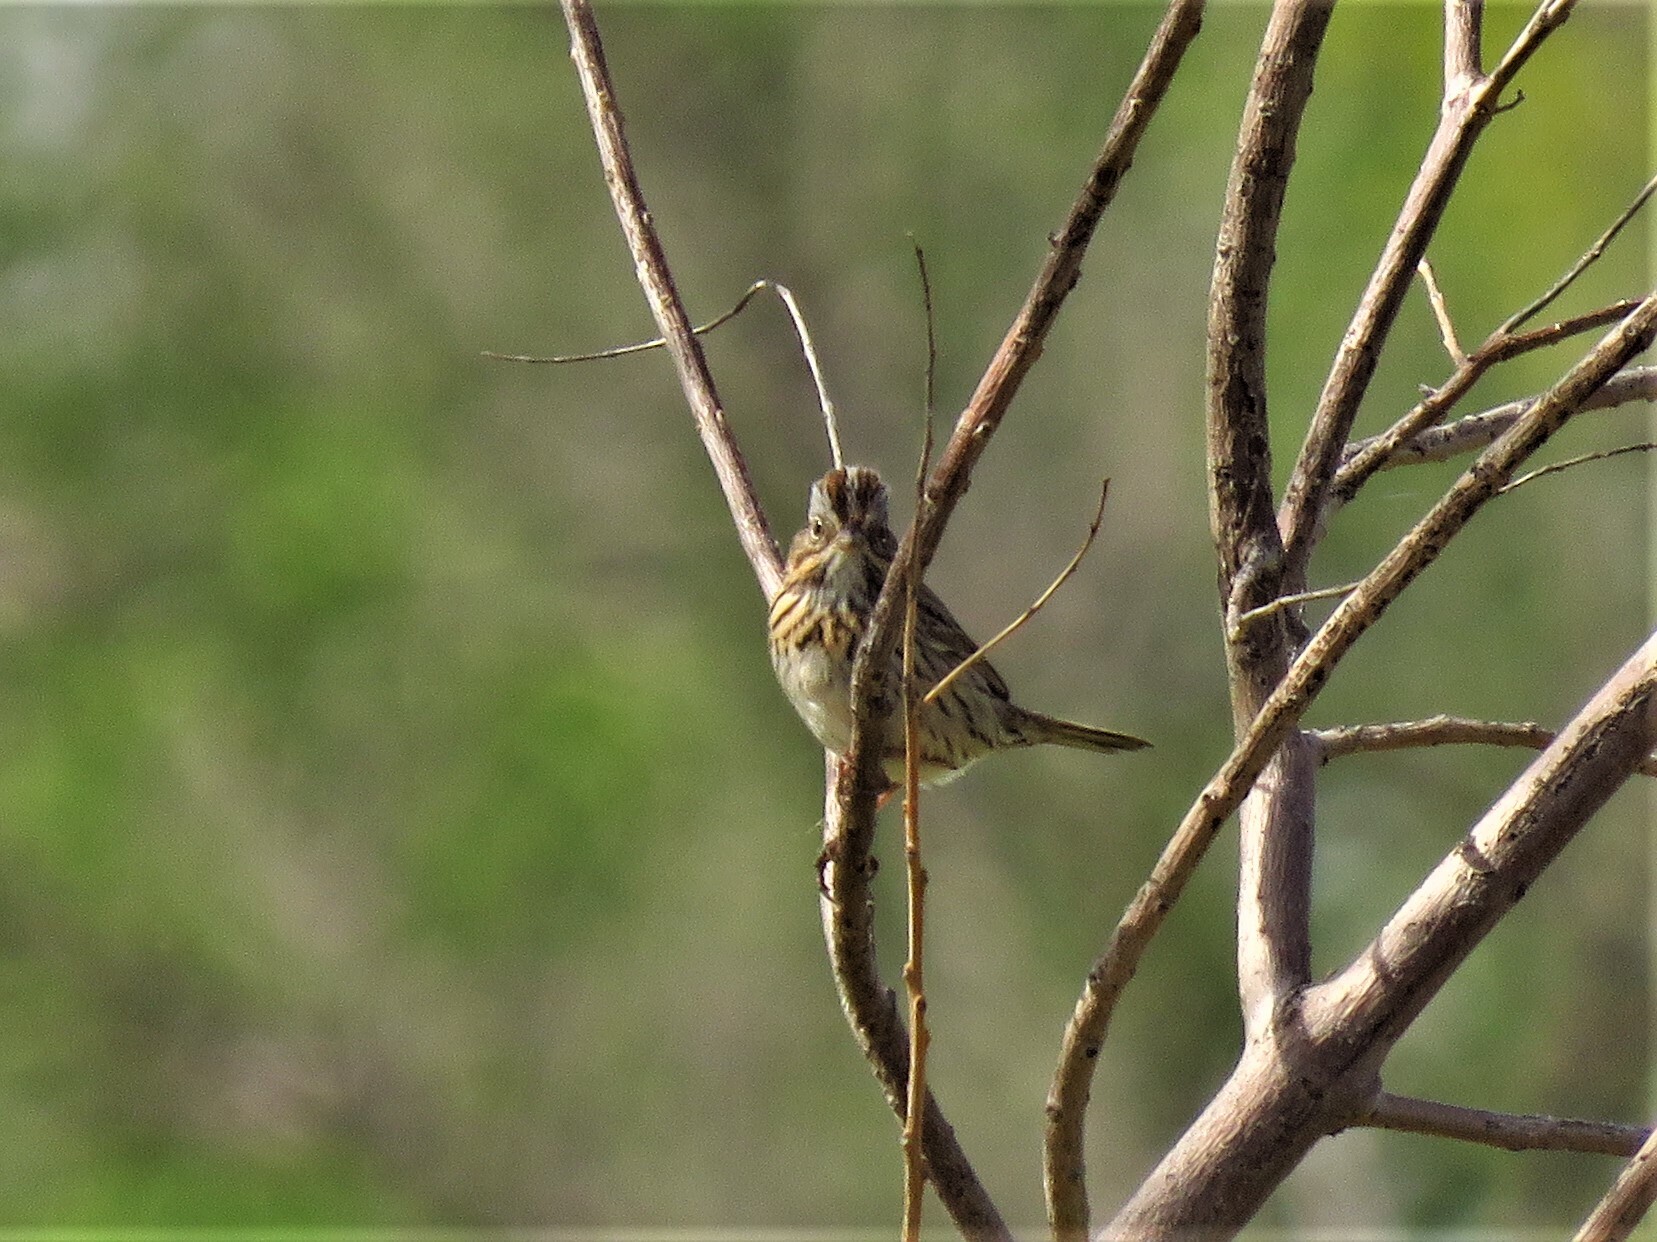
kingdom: Animalia
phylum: Chordata
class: Aves
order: Passeriformes
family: Passerellidae
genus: Melospiza
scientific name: Melospiza lincolnii
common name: Lincoln's sparrow
